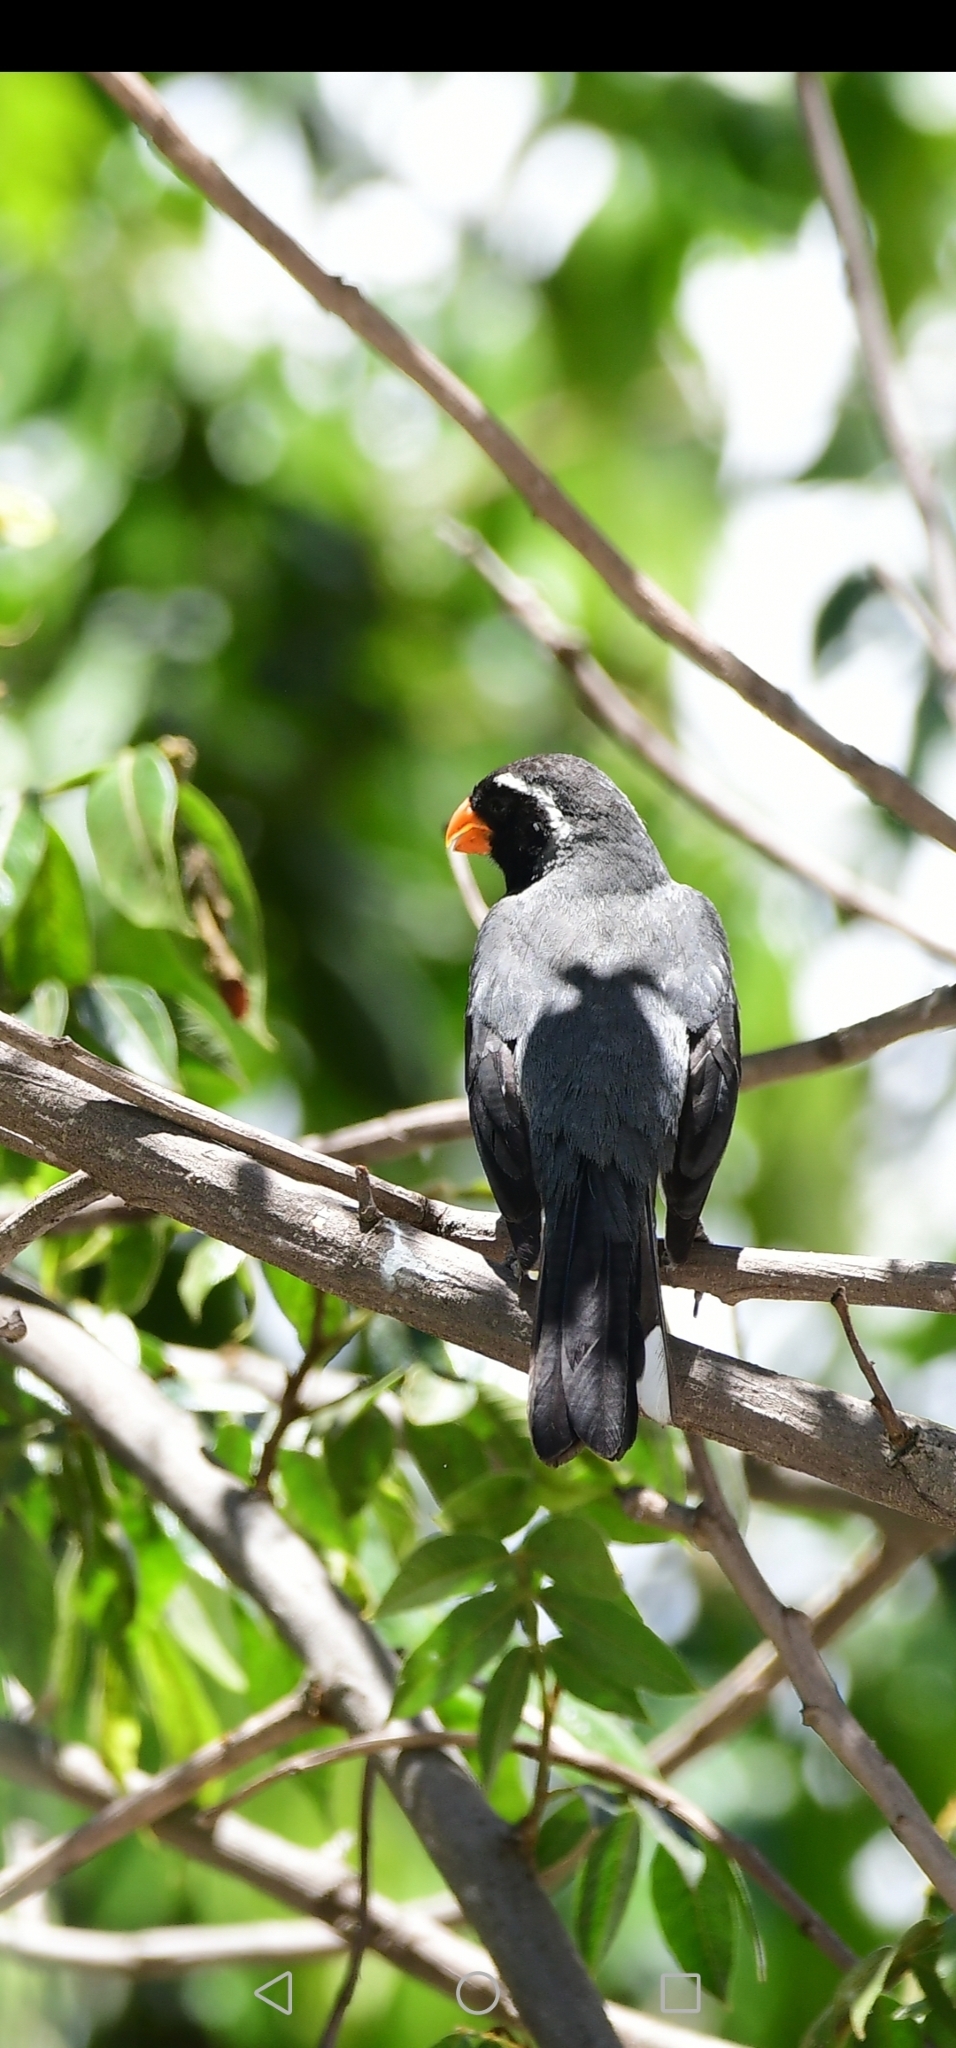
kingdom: Animalia
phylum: Chordata
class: Aves
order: Passeriformes
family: Thraupidae
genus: Saltator
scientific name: Saltator aurantiirostris
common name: Golden-billed saltator
